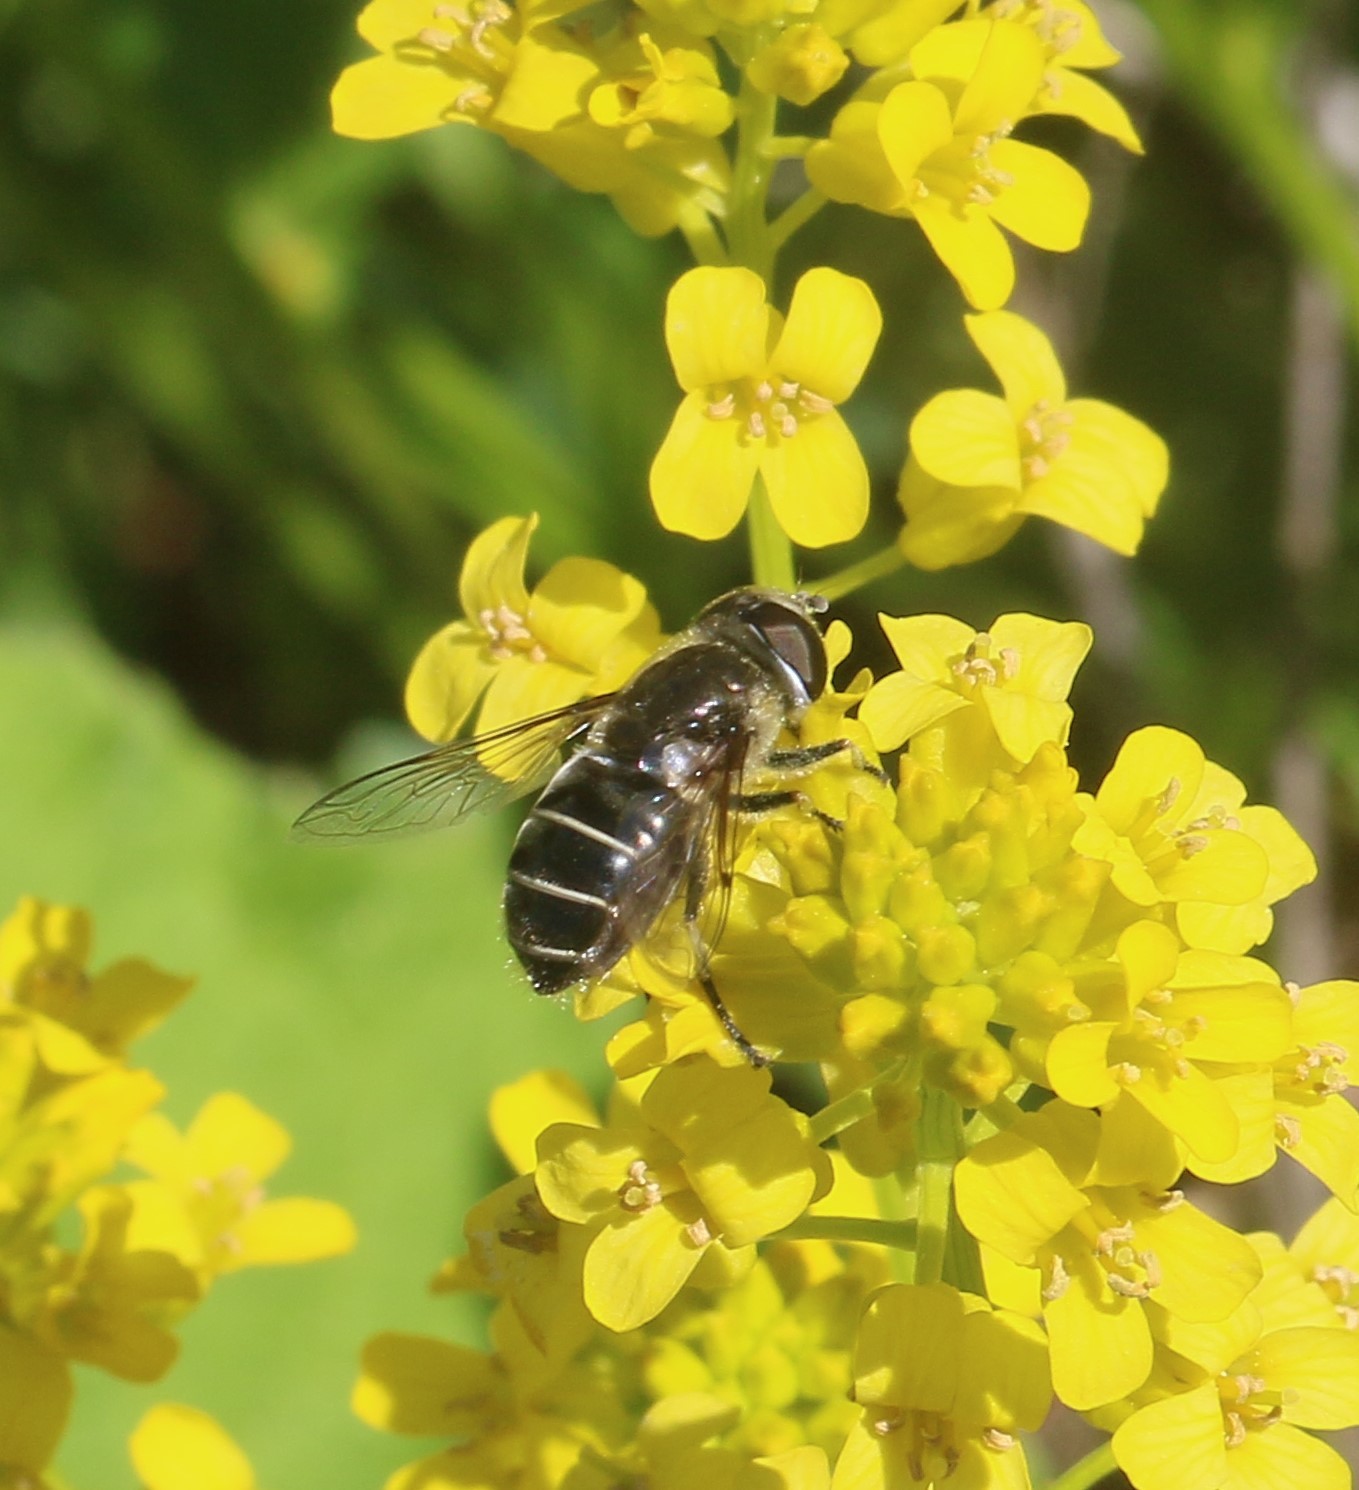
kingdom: Animalia
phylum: Arthropoda
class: Insecta
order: Diptera
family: Syrphidae
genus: Eristalis
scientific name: Eristalis dimidiata
